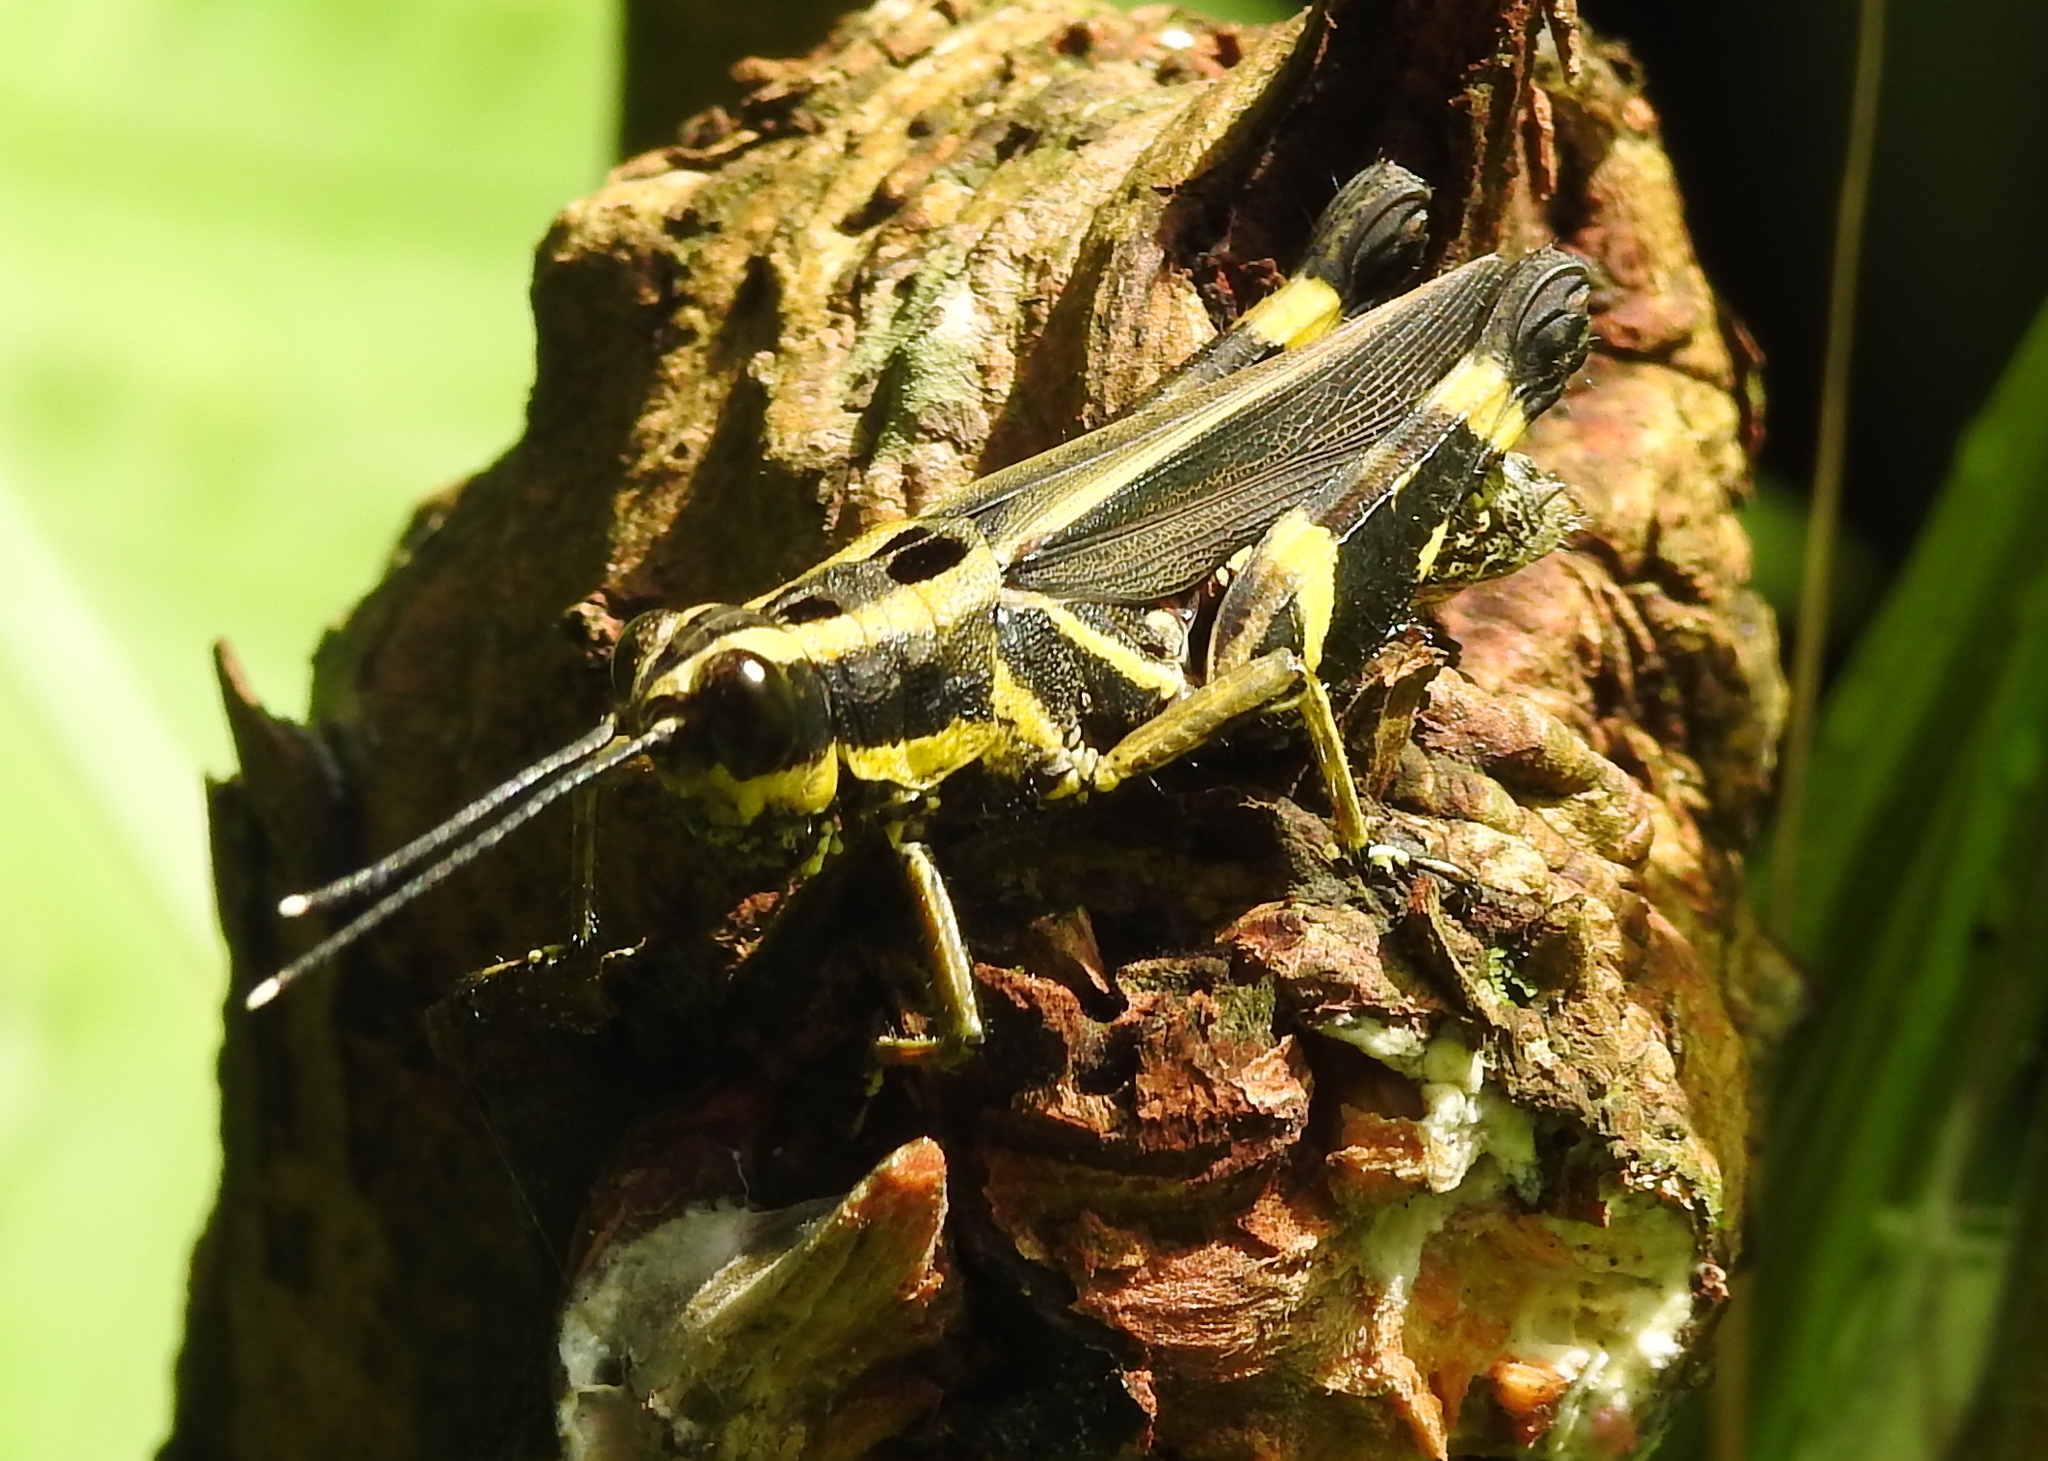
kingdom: Animalia
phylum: Arthropoda
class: Insecta
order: Orthoptera
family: Acrididae
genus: Traulia
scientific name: Traulia azureipennis
